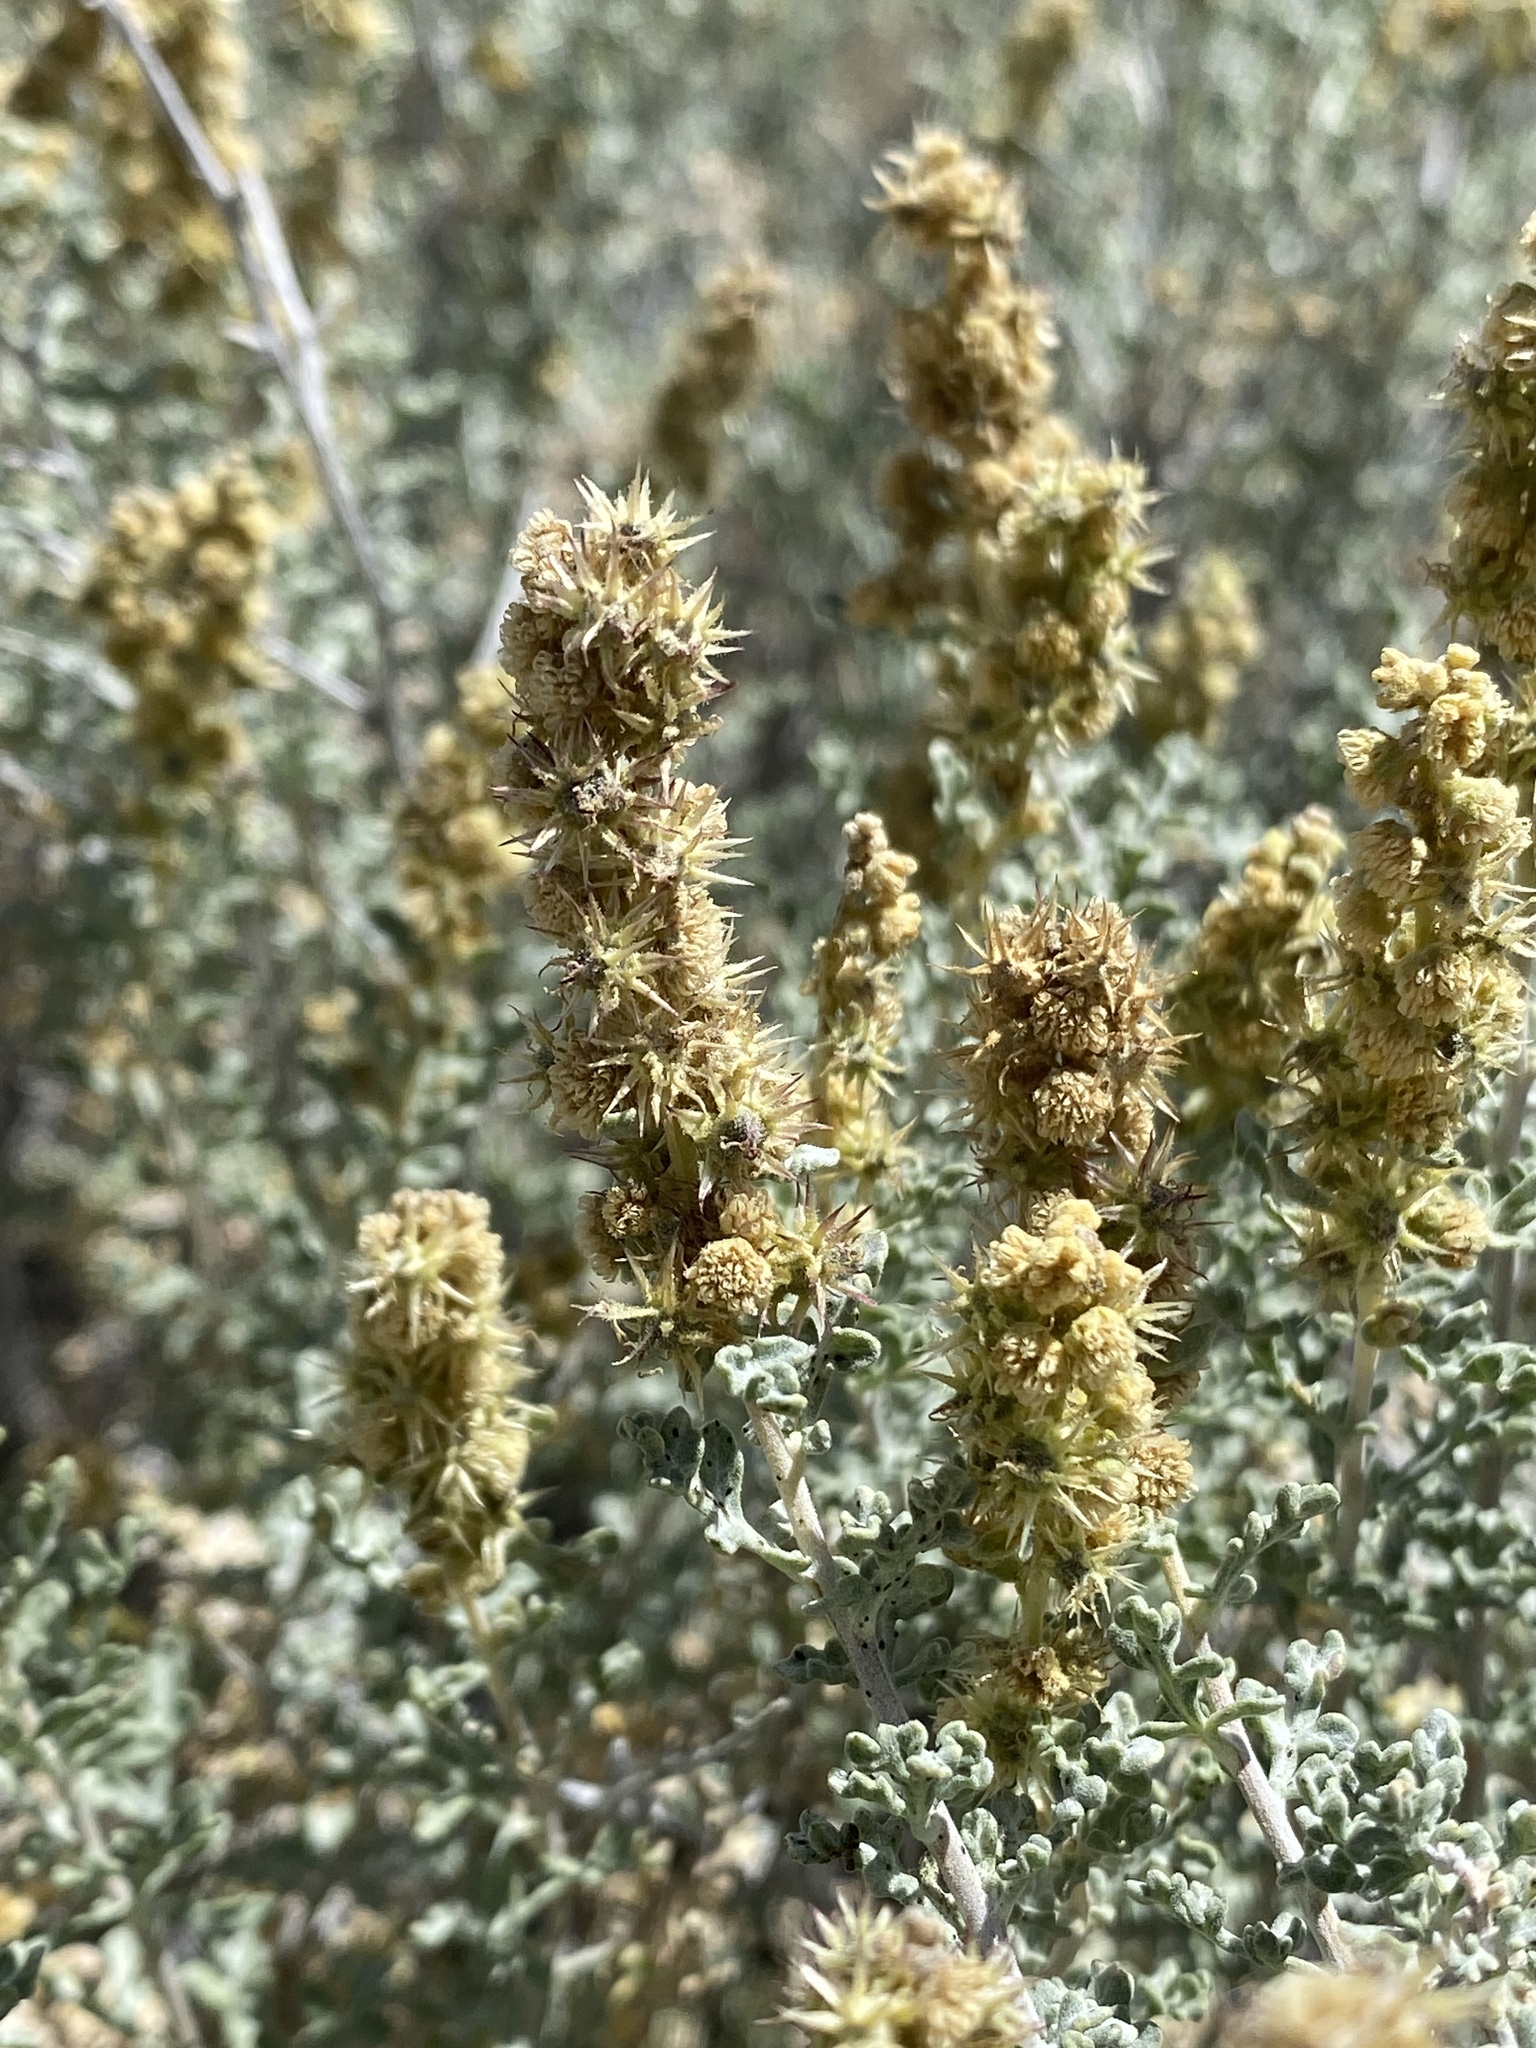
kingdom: Plantae
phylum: Tracheophyta
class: Magnoliopsida
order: Asterales
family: Asteraceae
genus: Ambrosia
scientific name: Ambrosia dumosa
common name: Bur-sage
